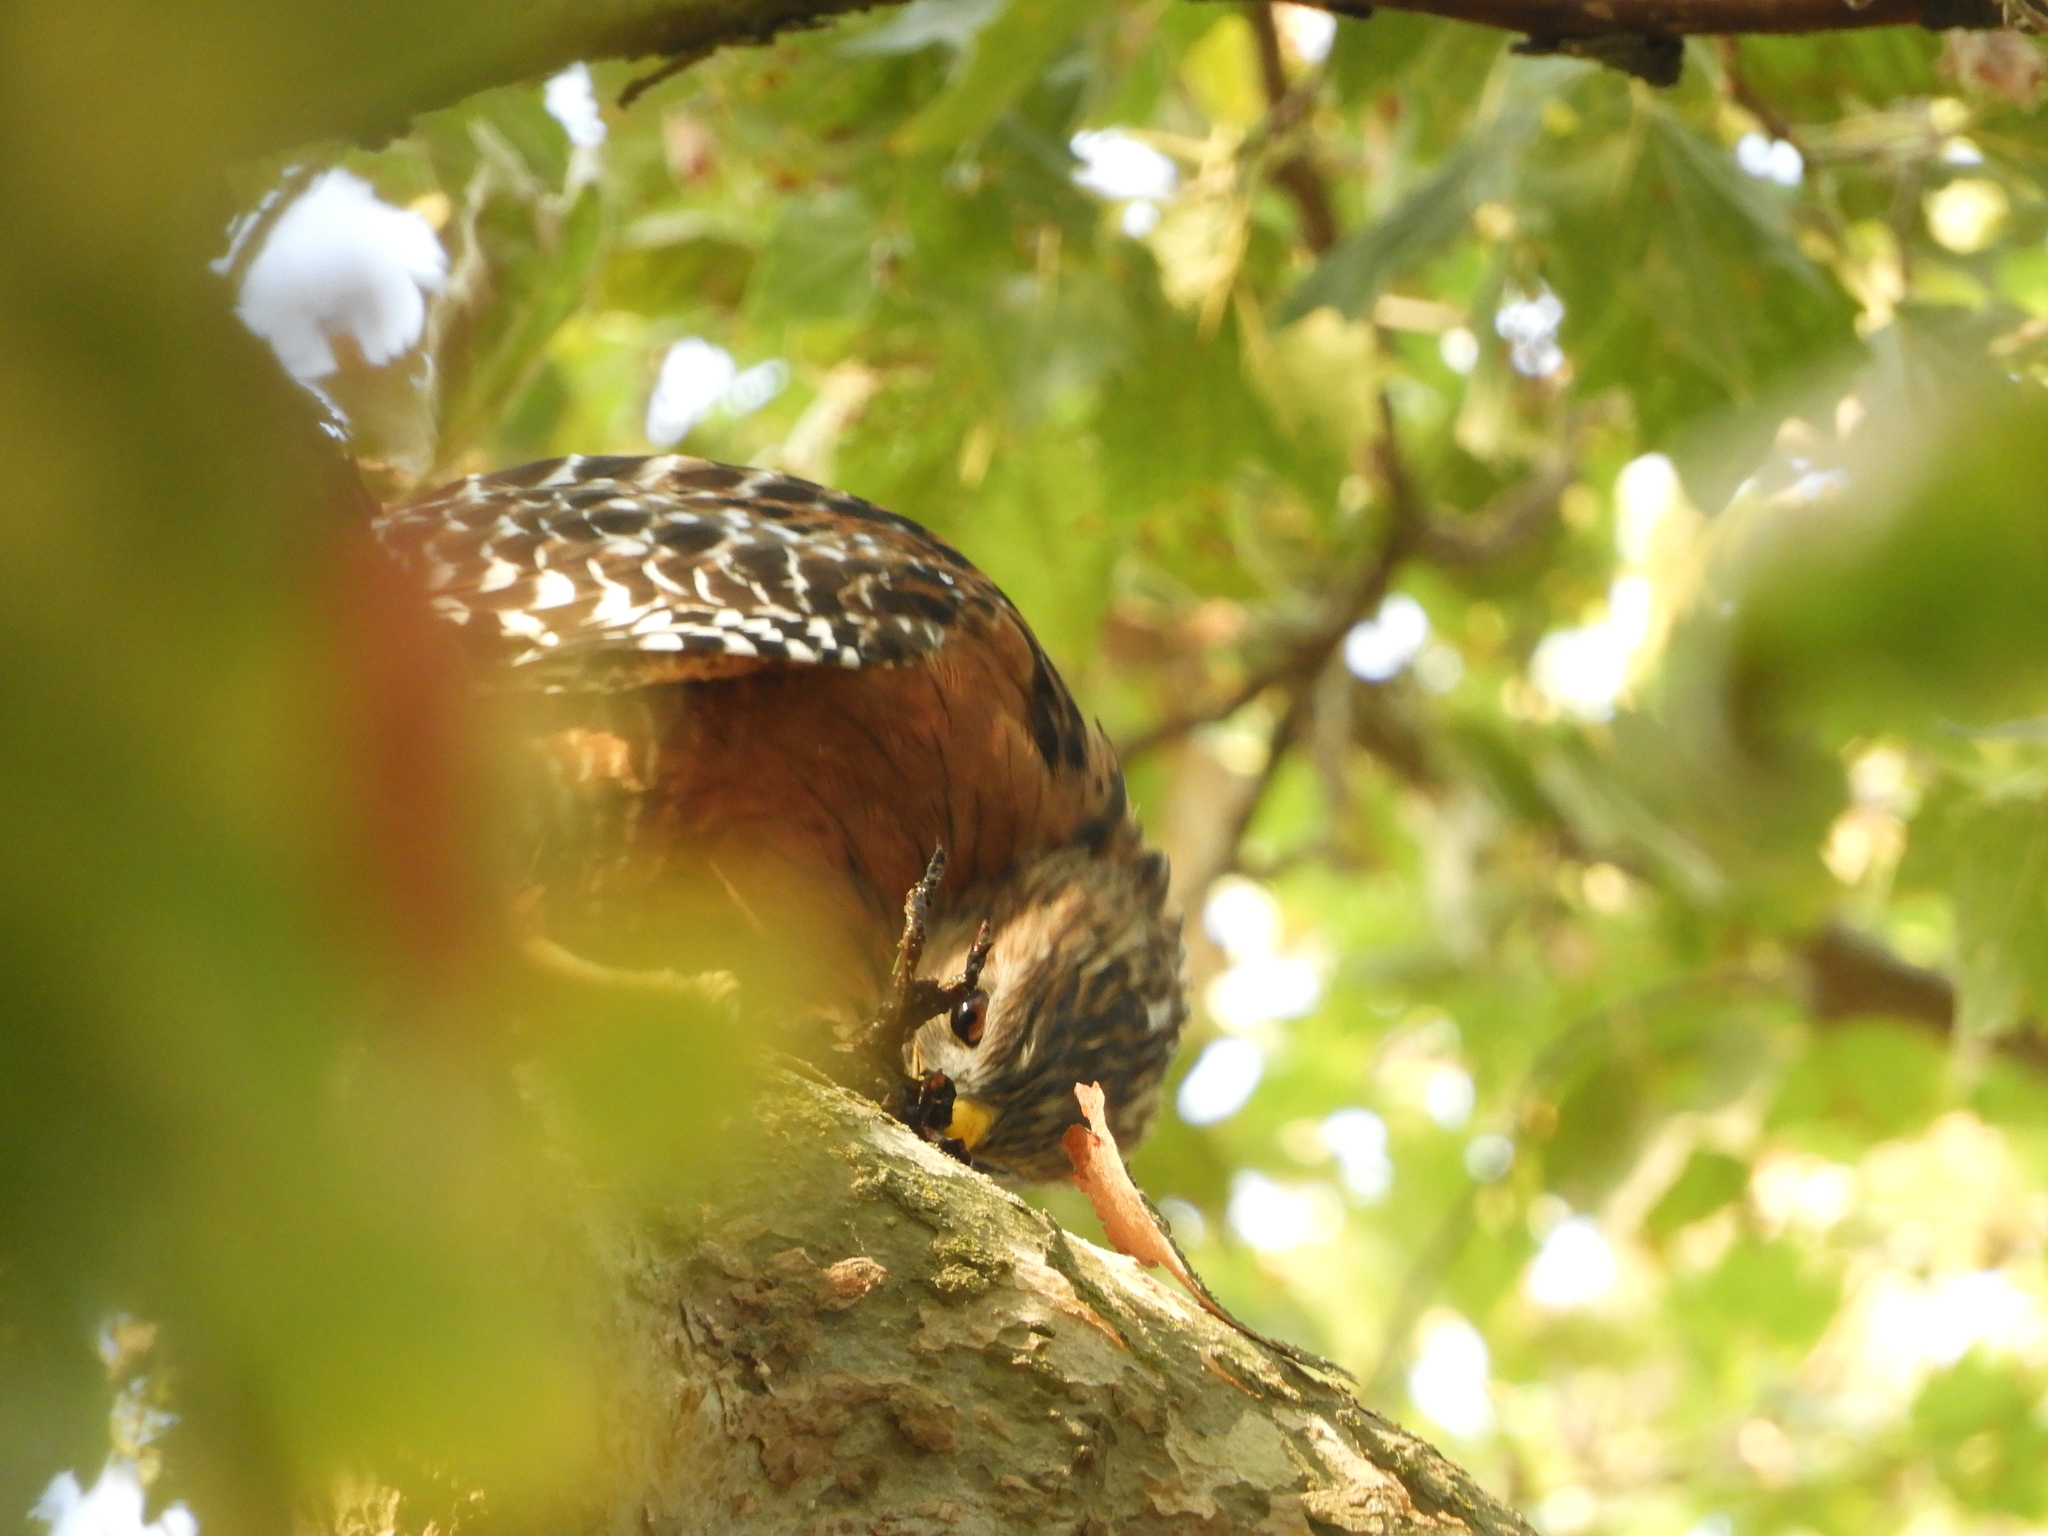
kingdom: Animalia
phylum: Chordata
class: Aves
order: Accipitriformes
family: Accipitridae
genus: Buteo
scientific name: Buteo lineatus
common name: Red-shouldered hawk
